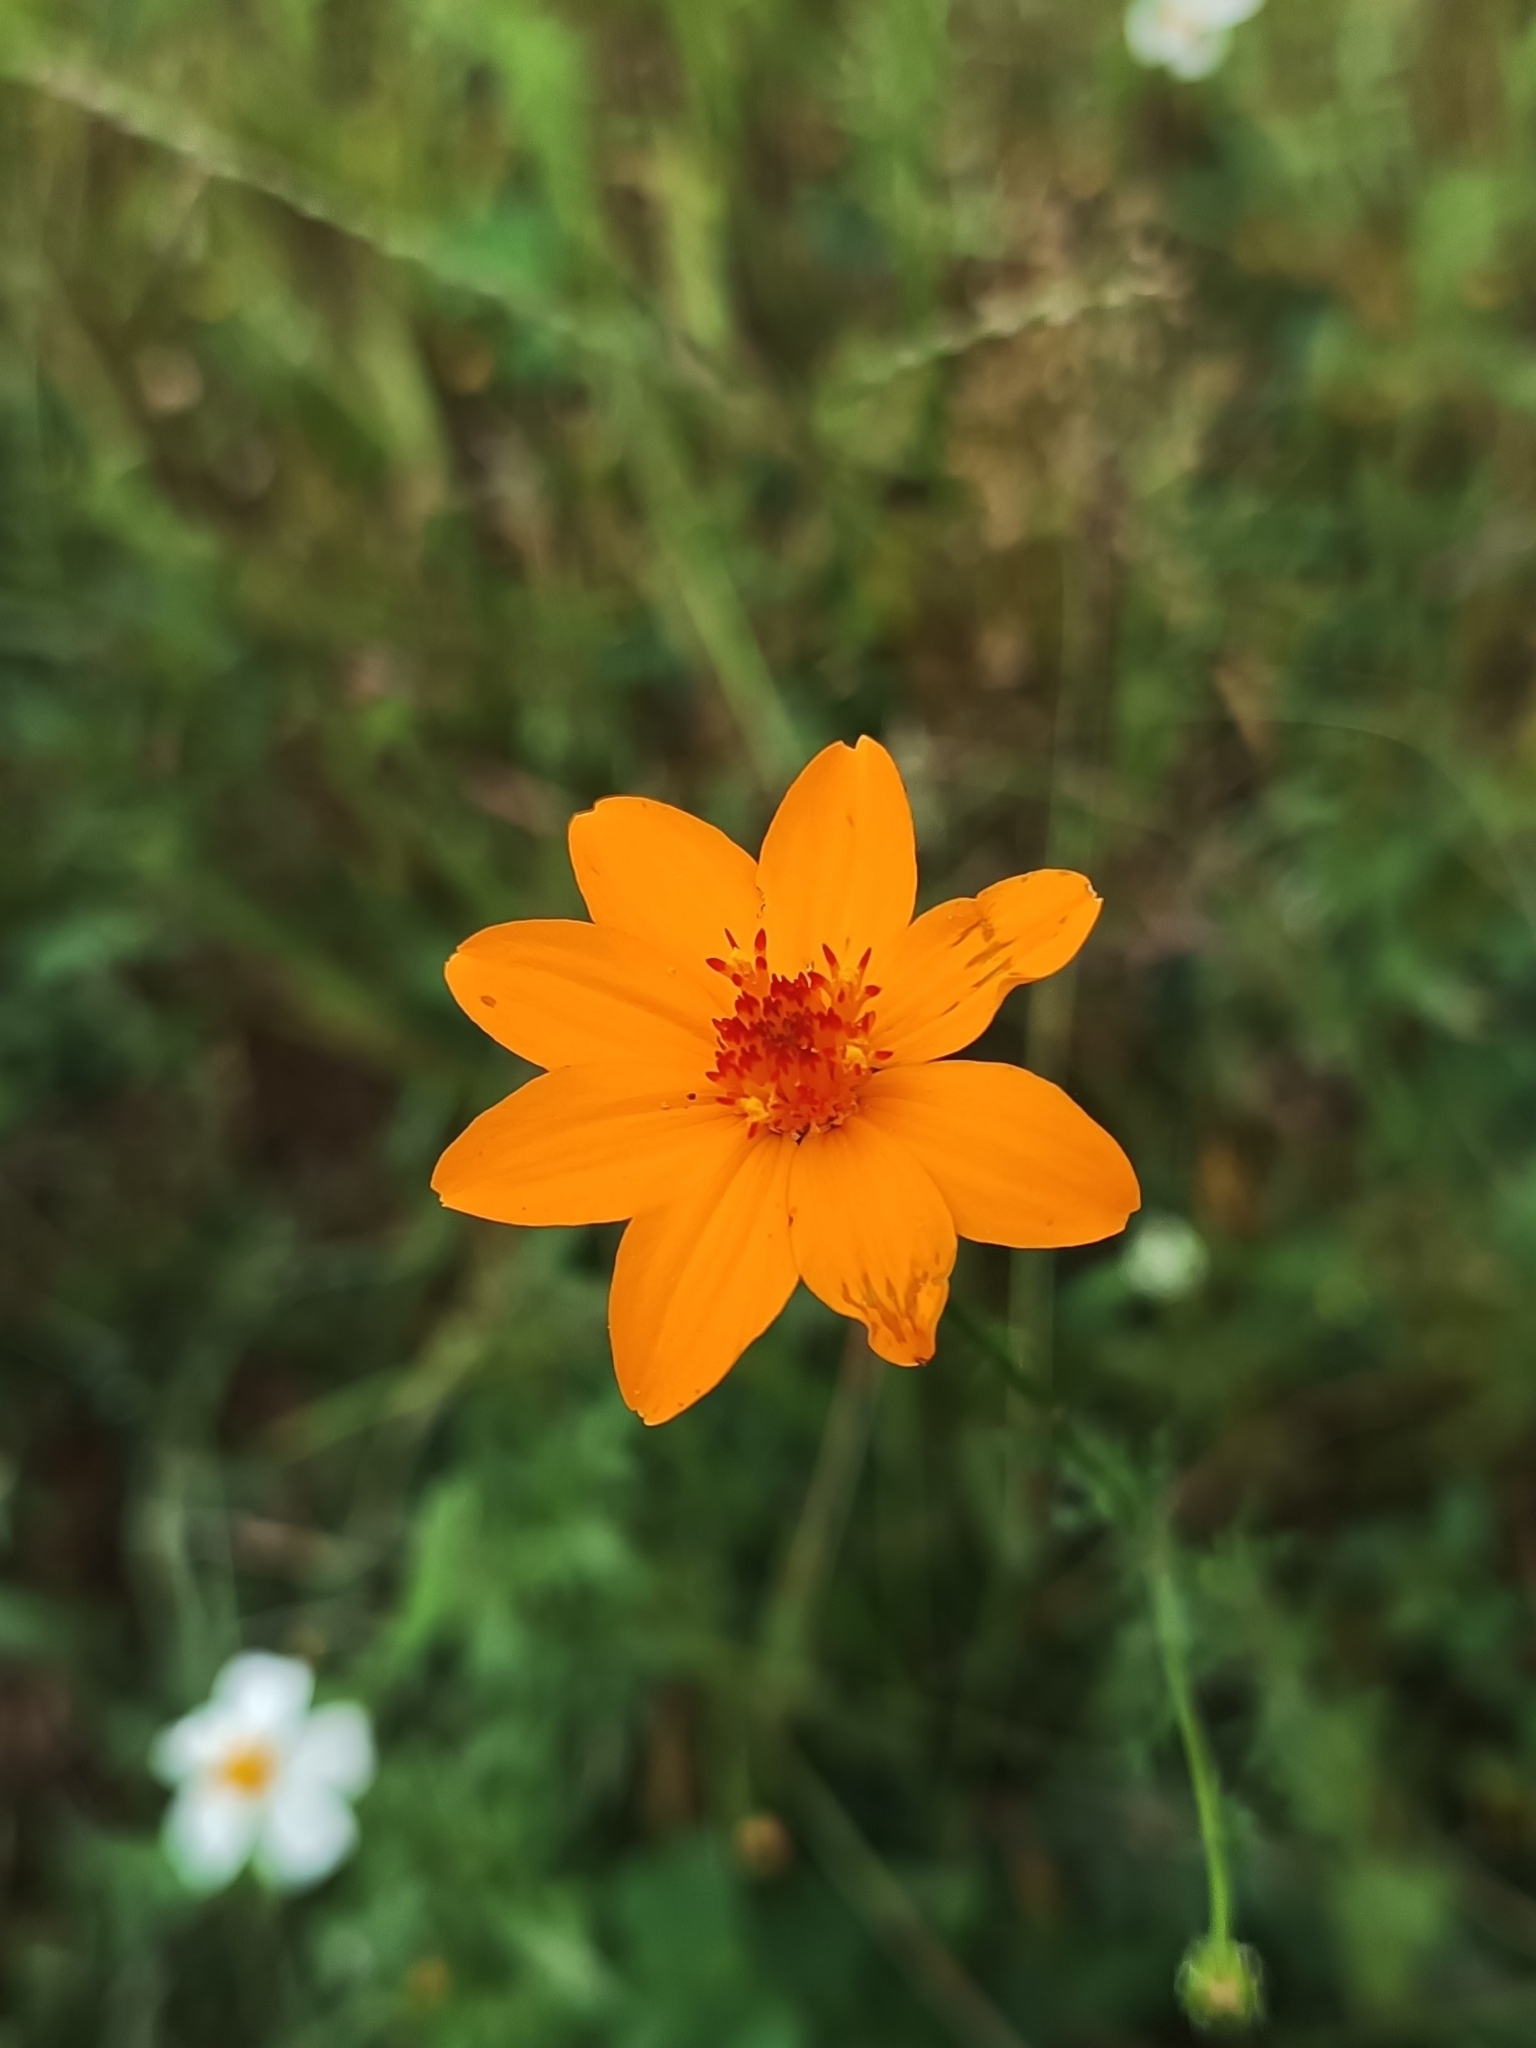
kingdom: Plantae
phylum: Tracheophyta
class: Magnoliopsida
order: Asterales
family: Asteraceae
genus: Adenophyllum
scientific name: Adenophyllum cancellatum
